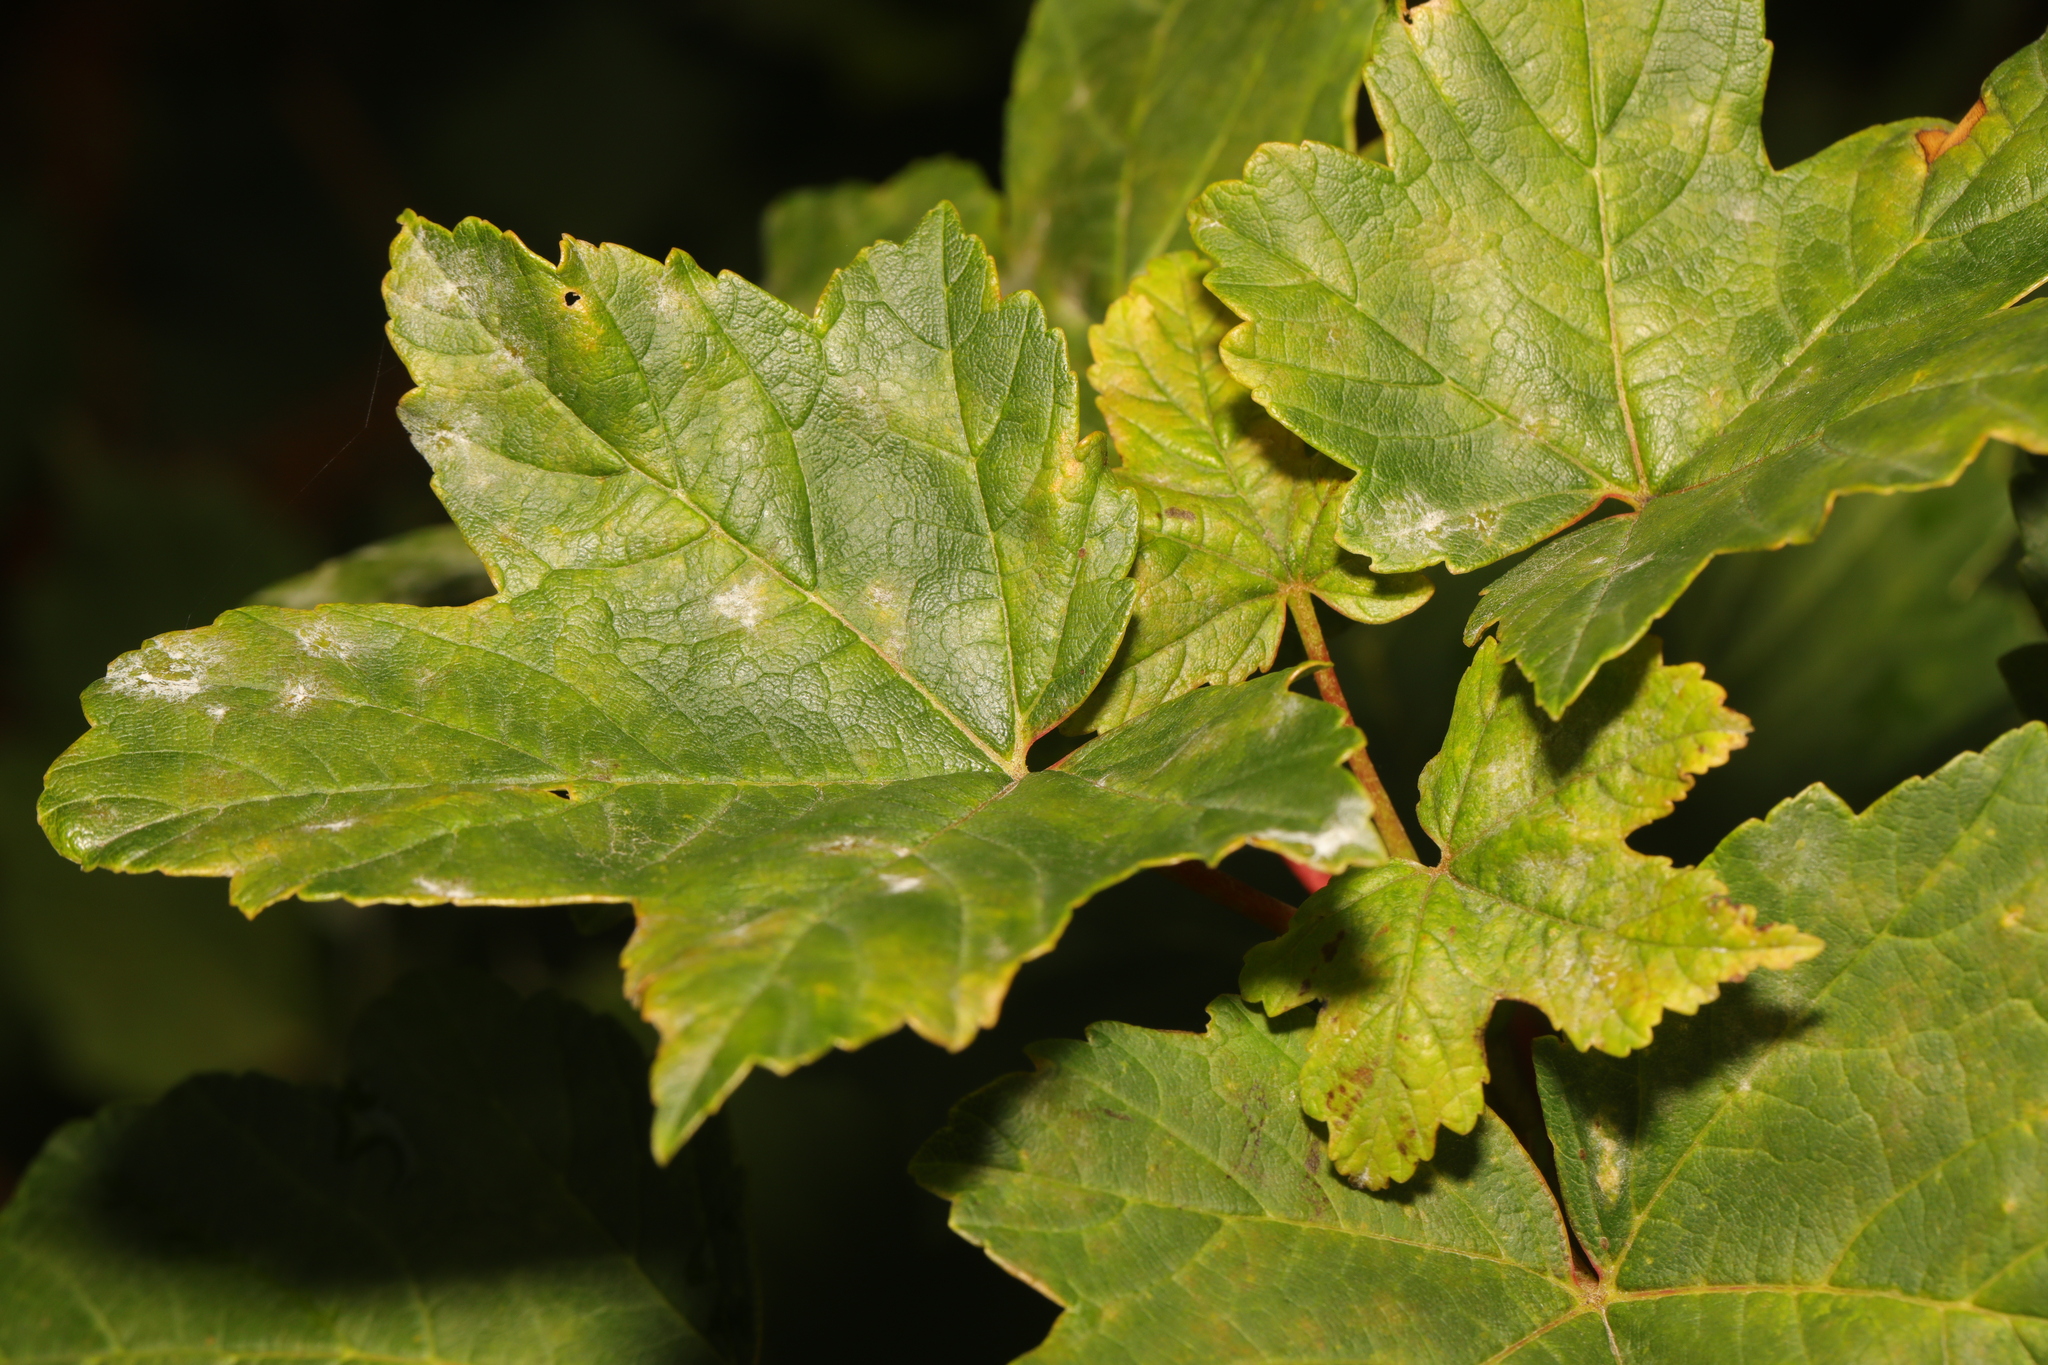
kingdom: Plantae
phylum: Tracheophyta
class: Magnoliopsida
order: Sapindales
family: Sapindaceae
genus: Acer
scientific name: Acer pseudoplatanus
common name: Sycamore
